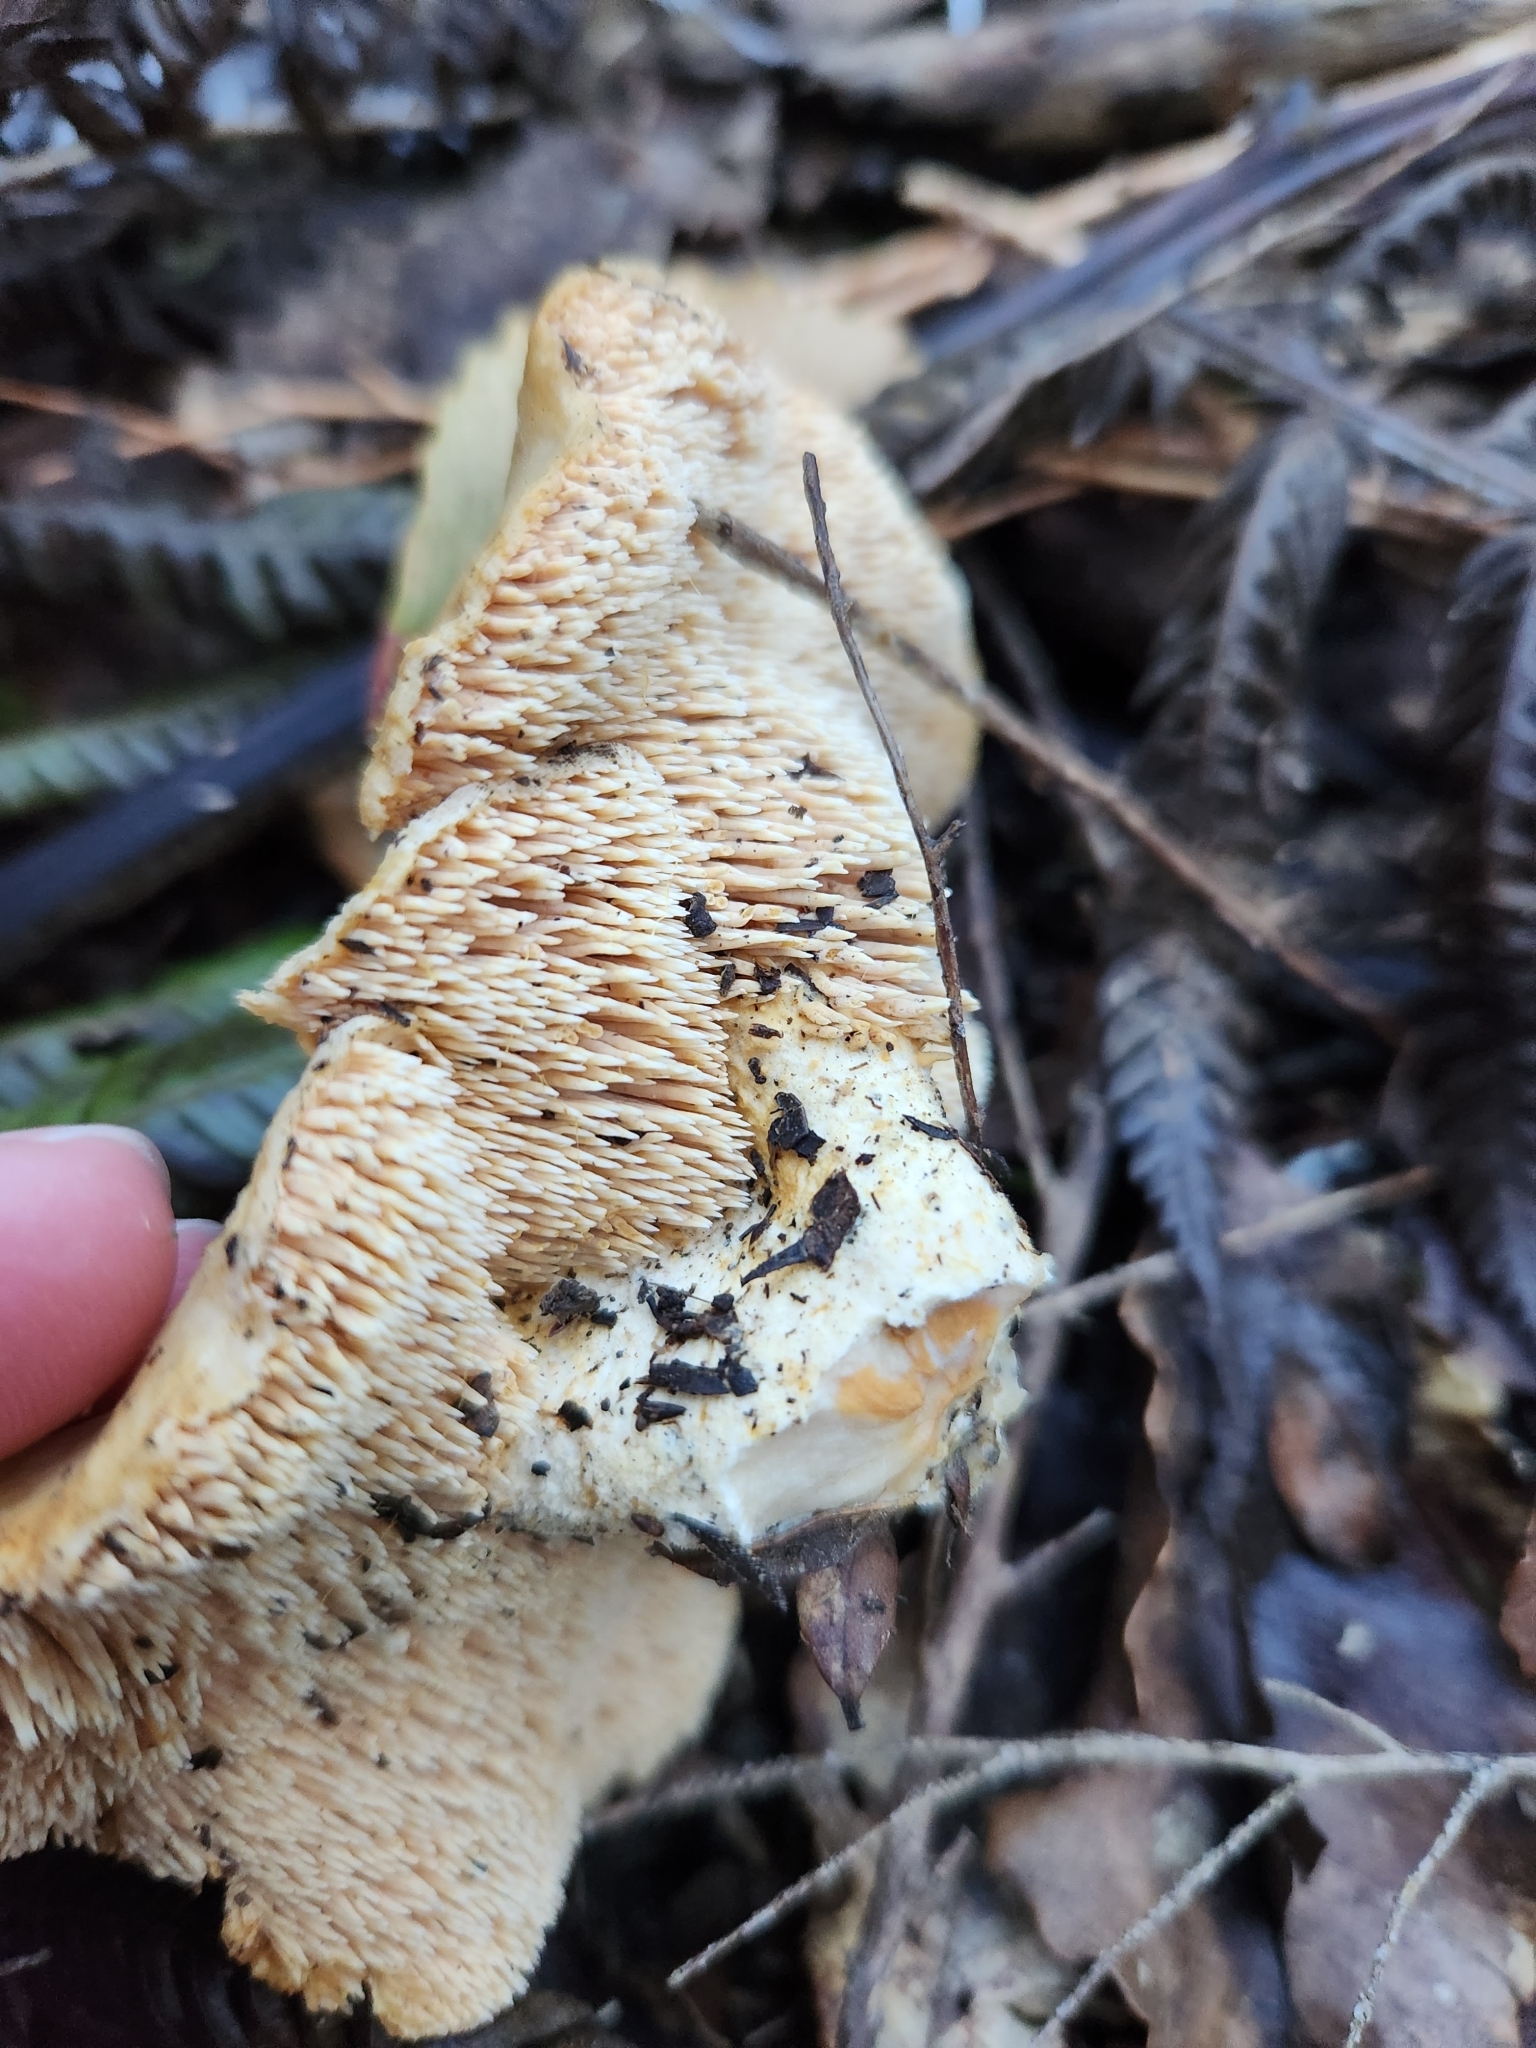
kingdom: Fungi
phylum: Basidiomycota
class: Agaricomycetes
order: Cantharellales
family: Hydnaceae
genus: Hydnum
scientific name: Hydnum ambustum
